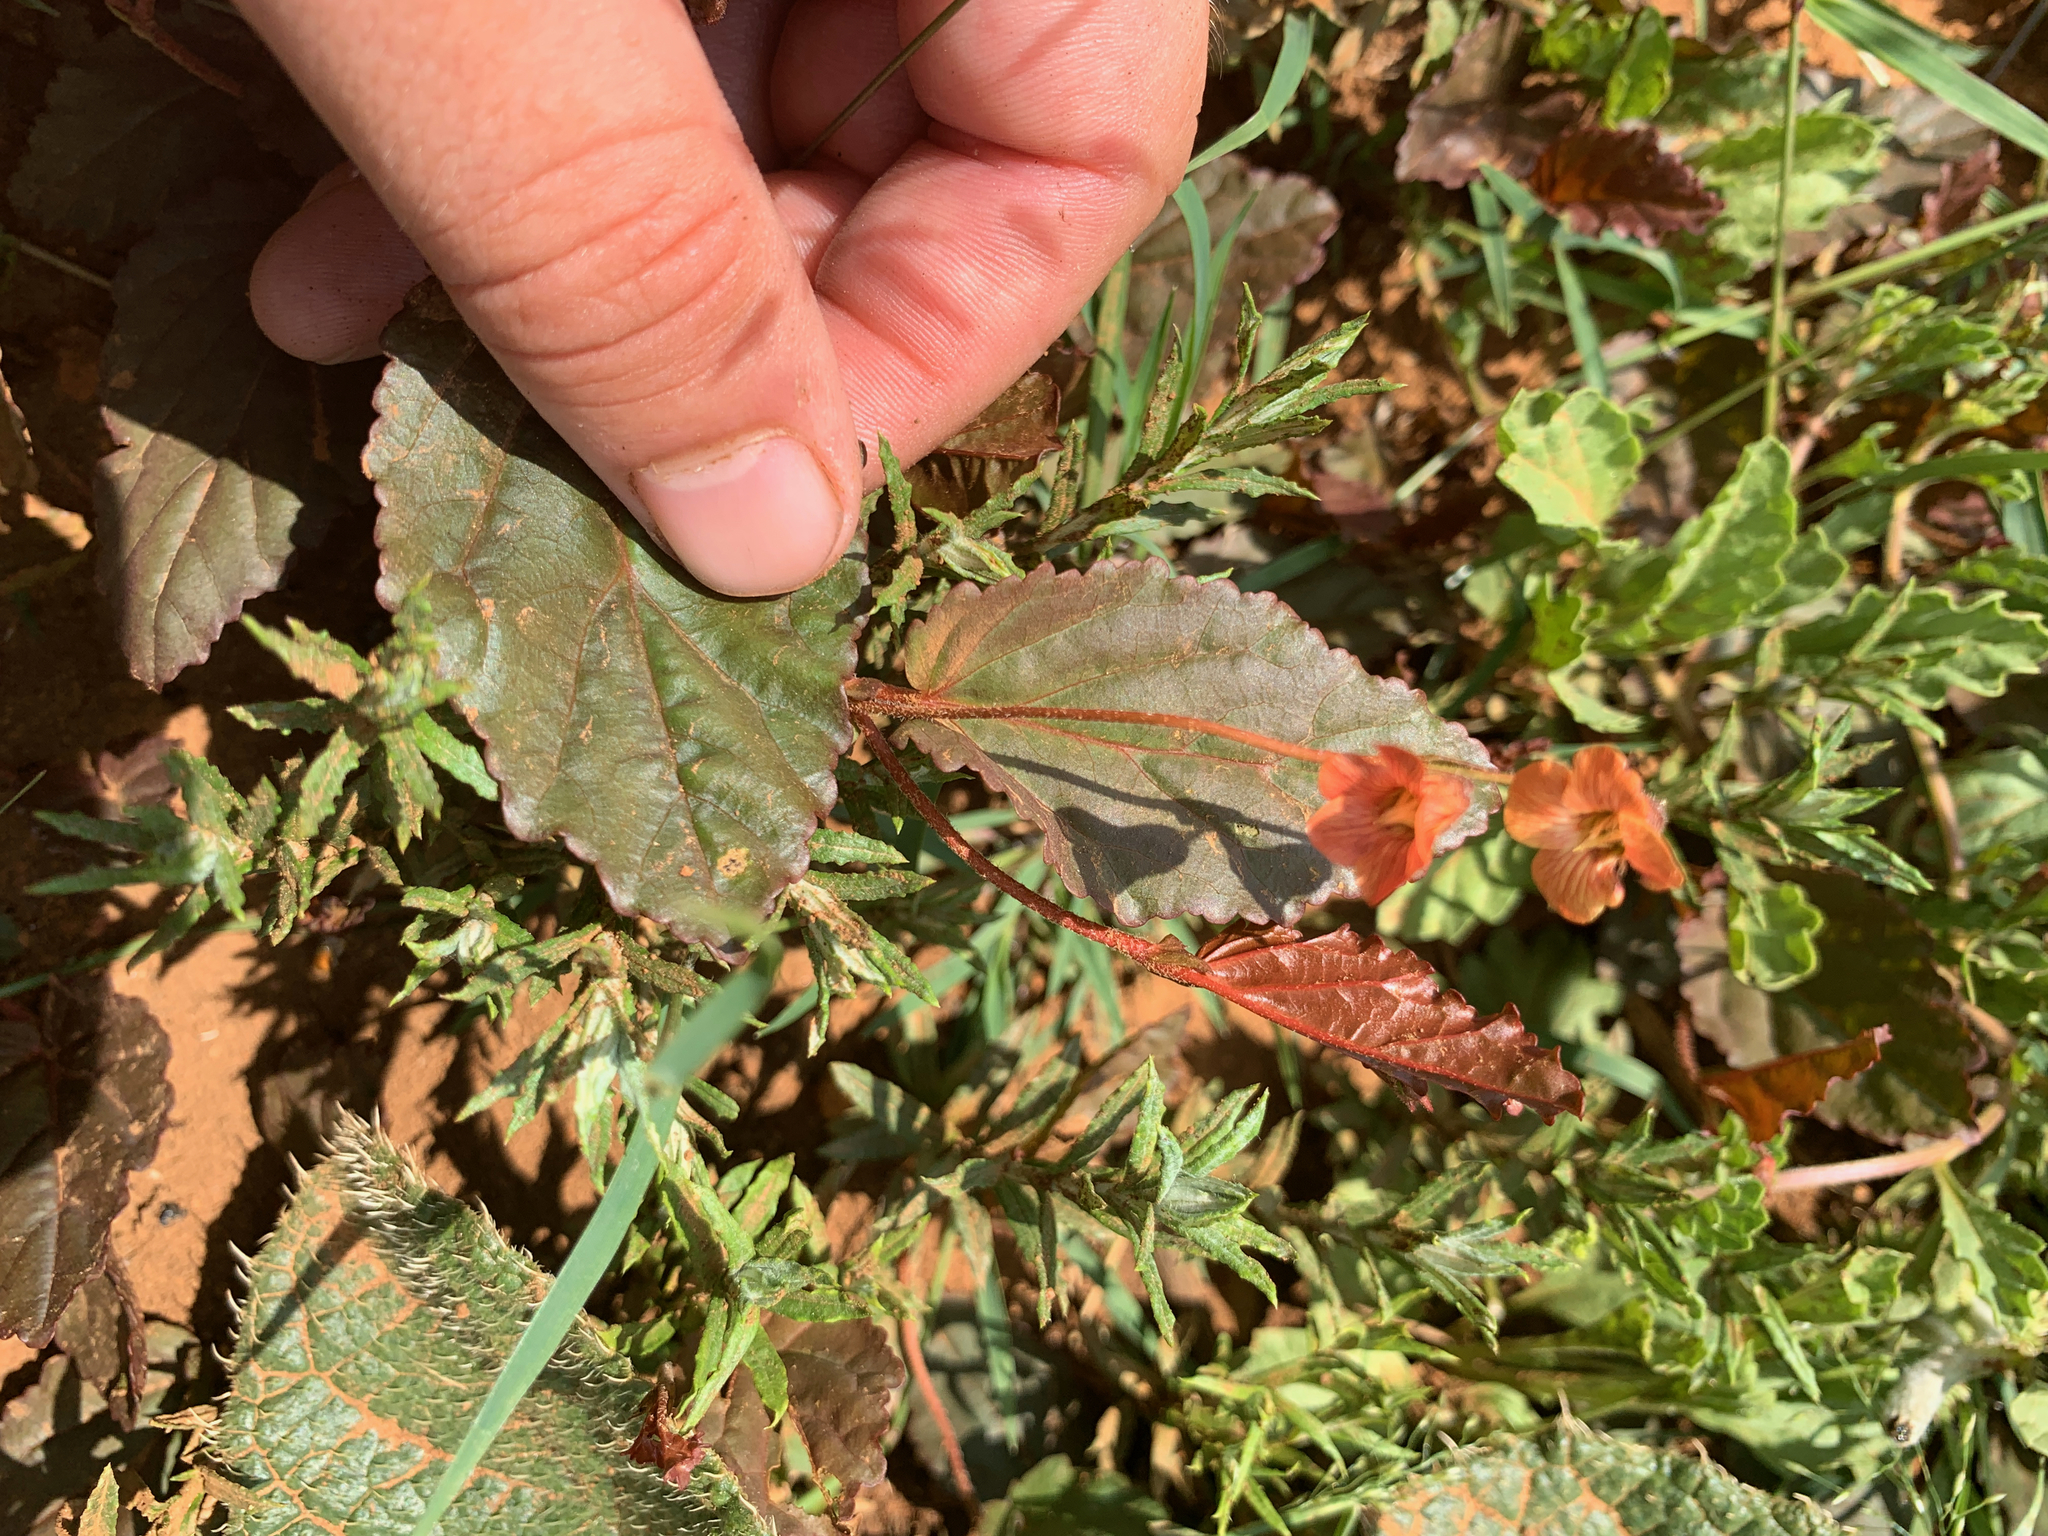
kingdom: Plantae
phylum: Tracheophyta
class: Magnoliopsida
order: Malvales
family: Malvaceae
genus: Hermannia
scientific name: Hermannia depressa
